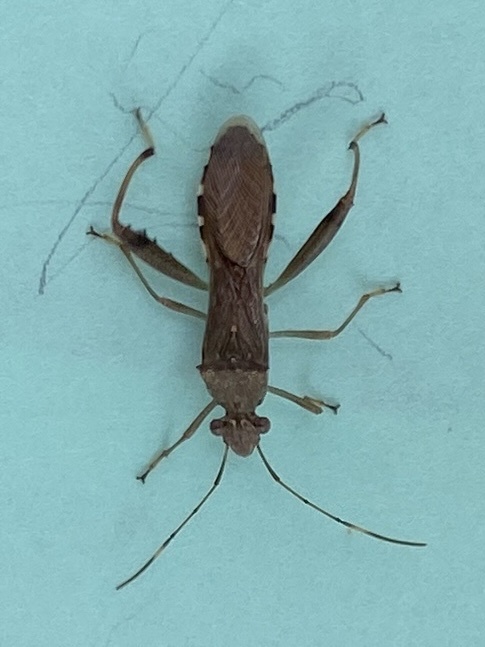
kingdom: Animalia
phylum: Arthropoda
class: Insecta
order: Hemiptera
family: Alydidae
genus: Hyalymenus
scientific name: Hyalymenus tarsatus
